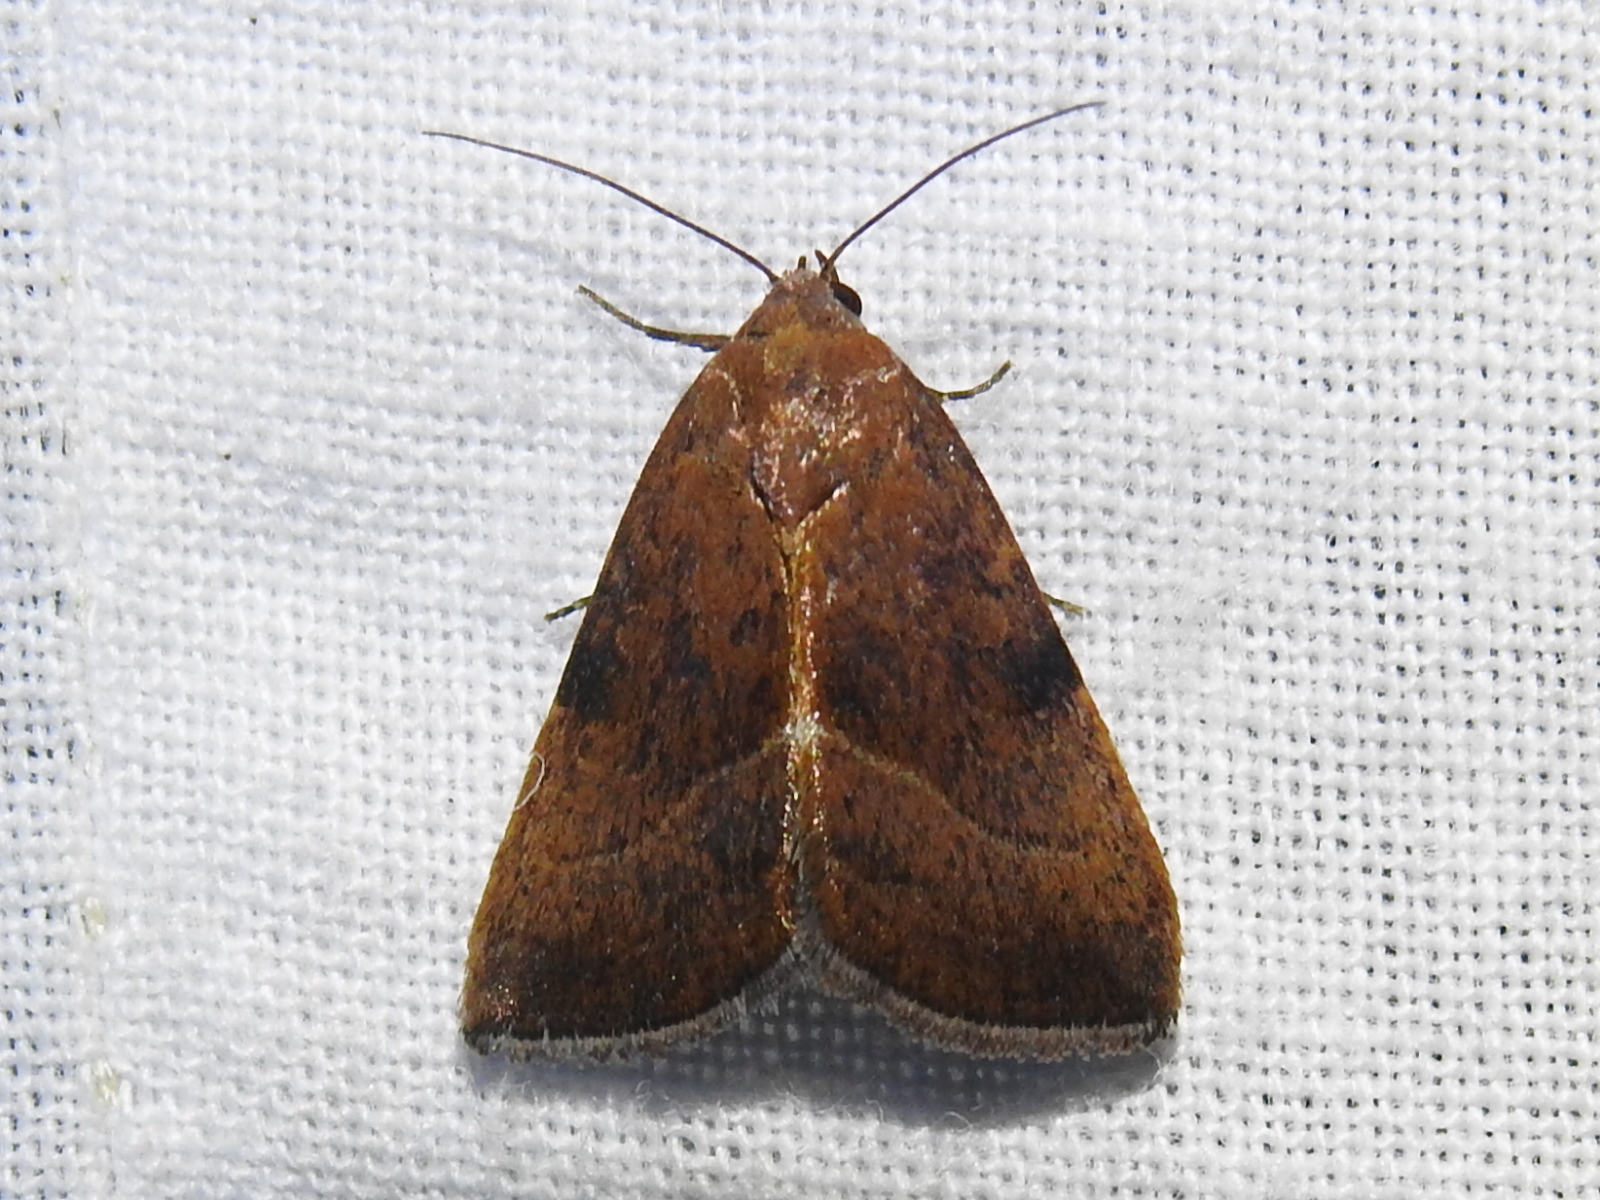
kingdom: Animalia
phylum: Arthropoda
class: Insecta
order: Lepidoptera
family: Noctuidae
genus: Galgula
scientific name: Galgula partita
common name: Wedgeling
